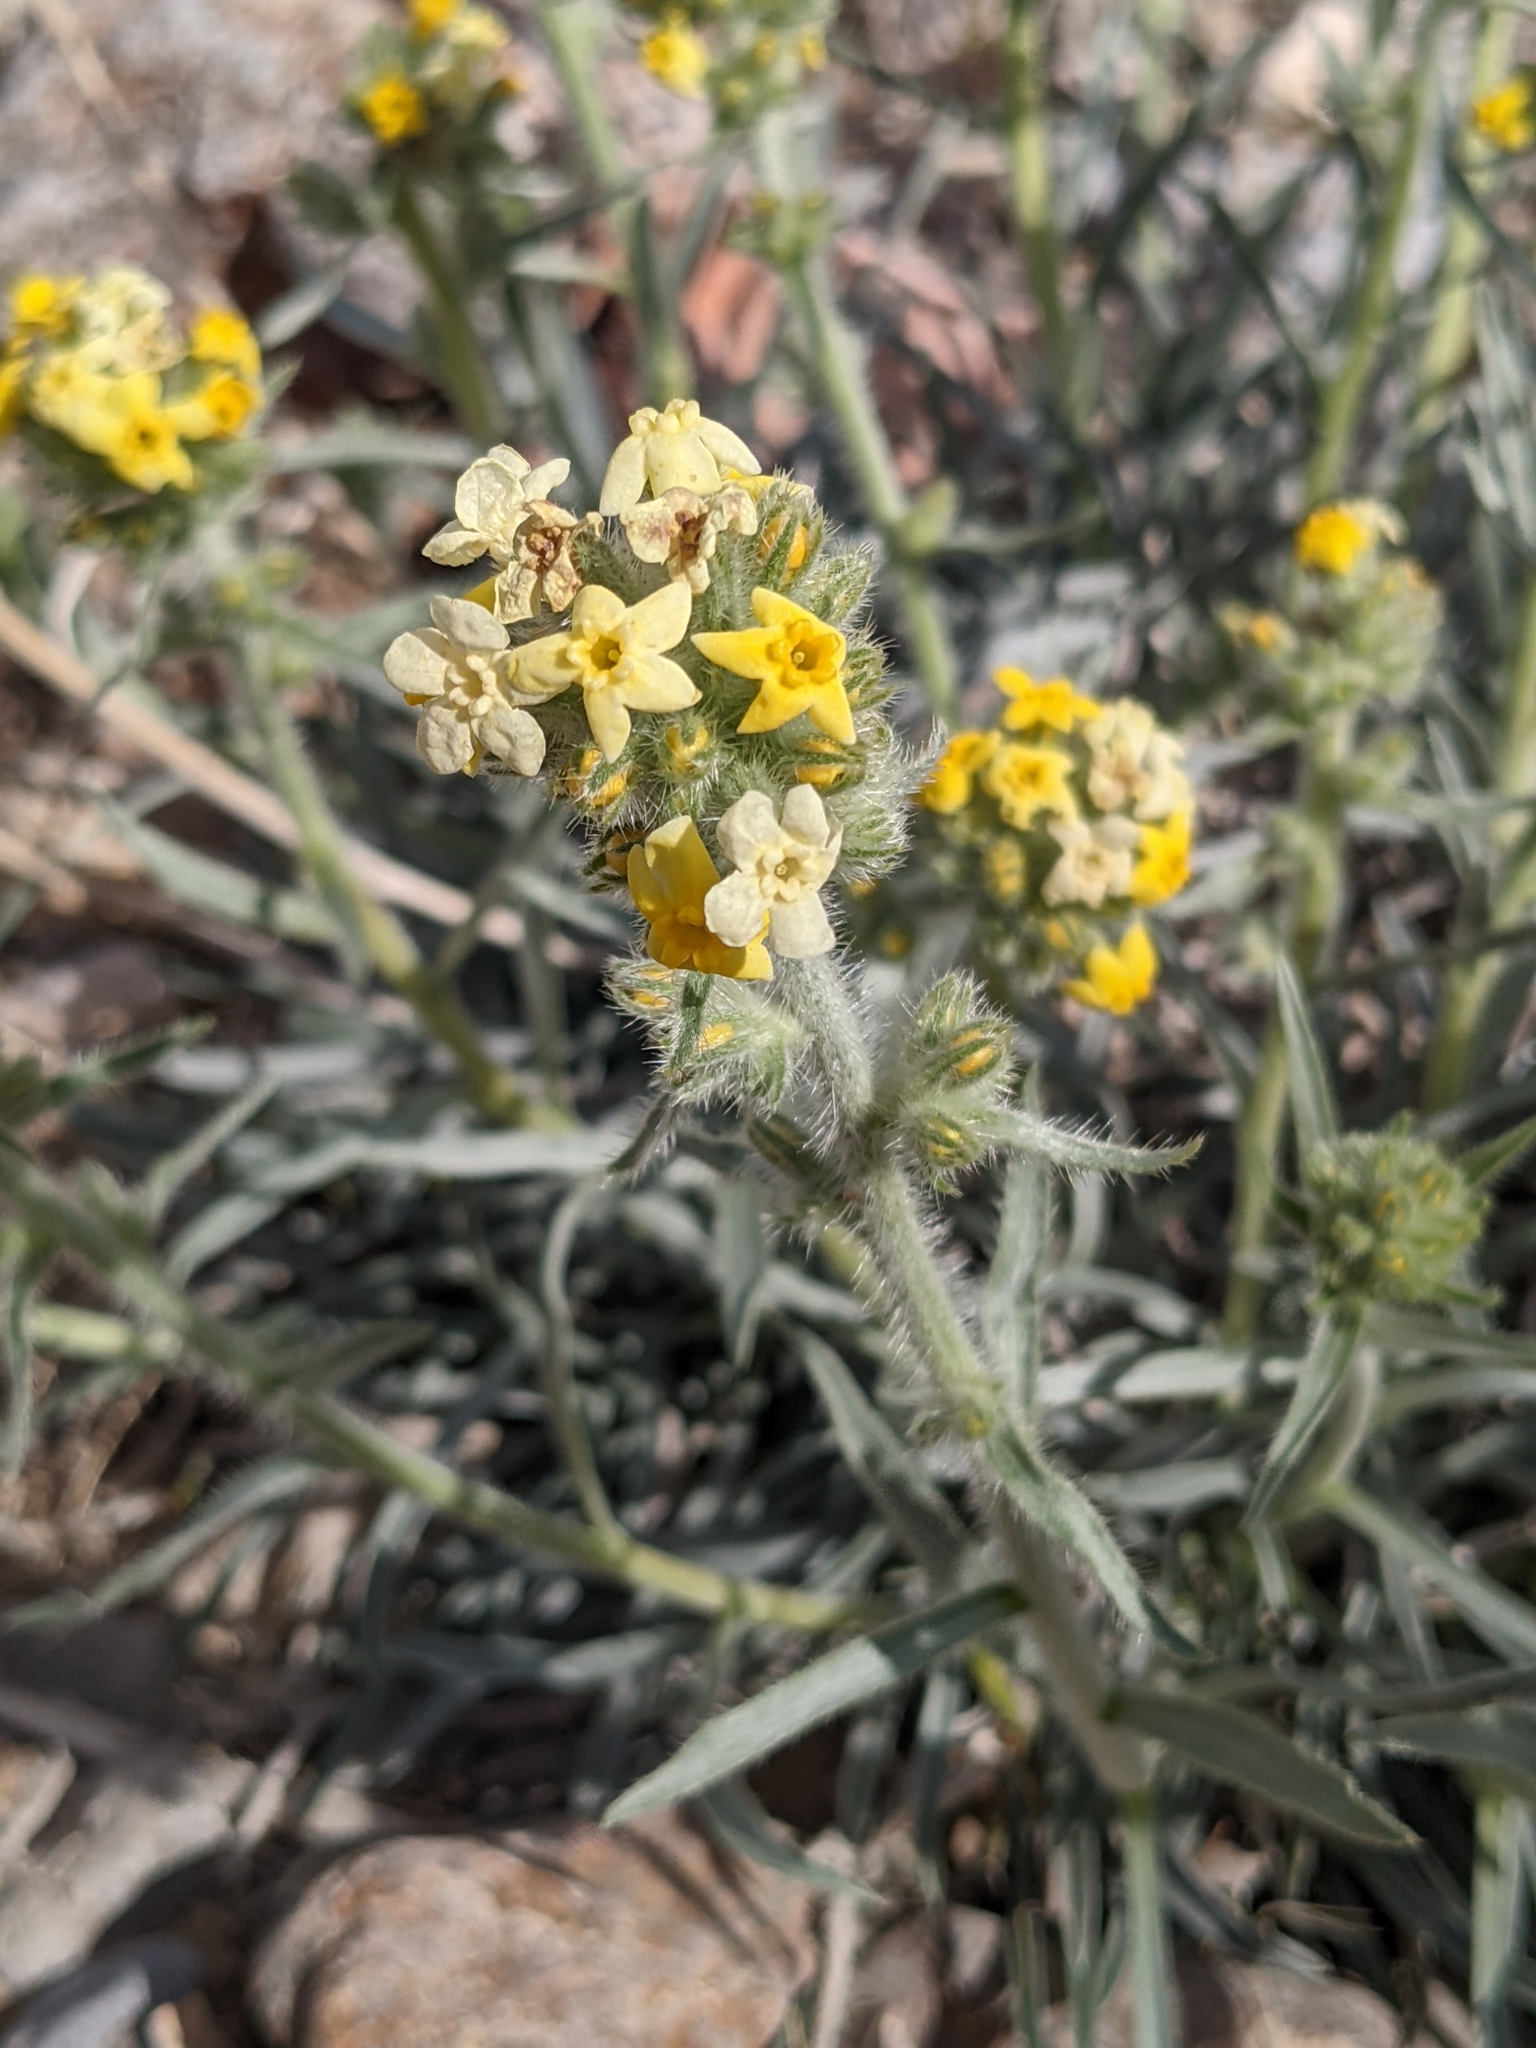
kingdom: Plantae
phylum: Tracheophyta
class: Magnoliopsida
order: Boraginales
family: Boraginaceae
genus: Oreocarya
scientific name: Oreocarya confertiflora
